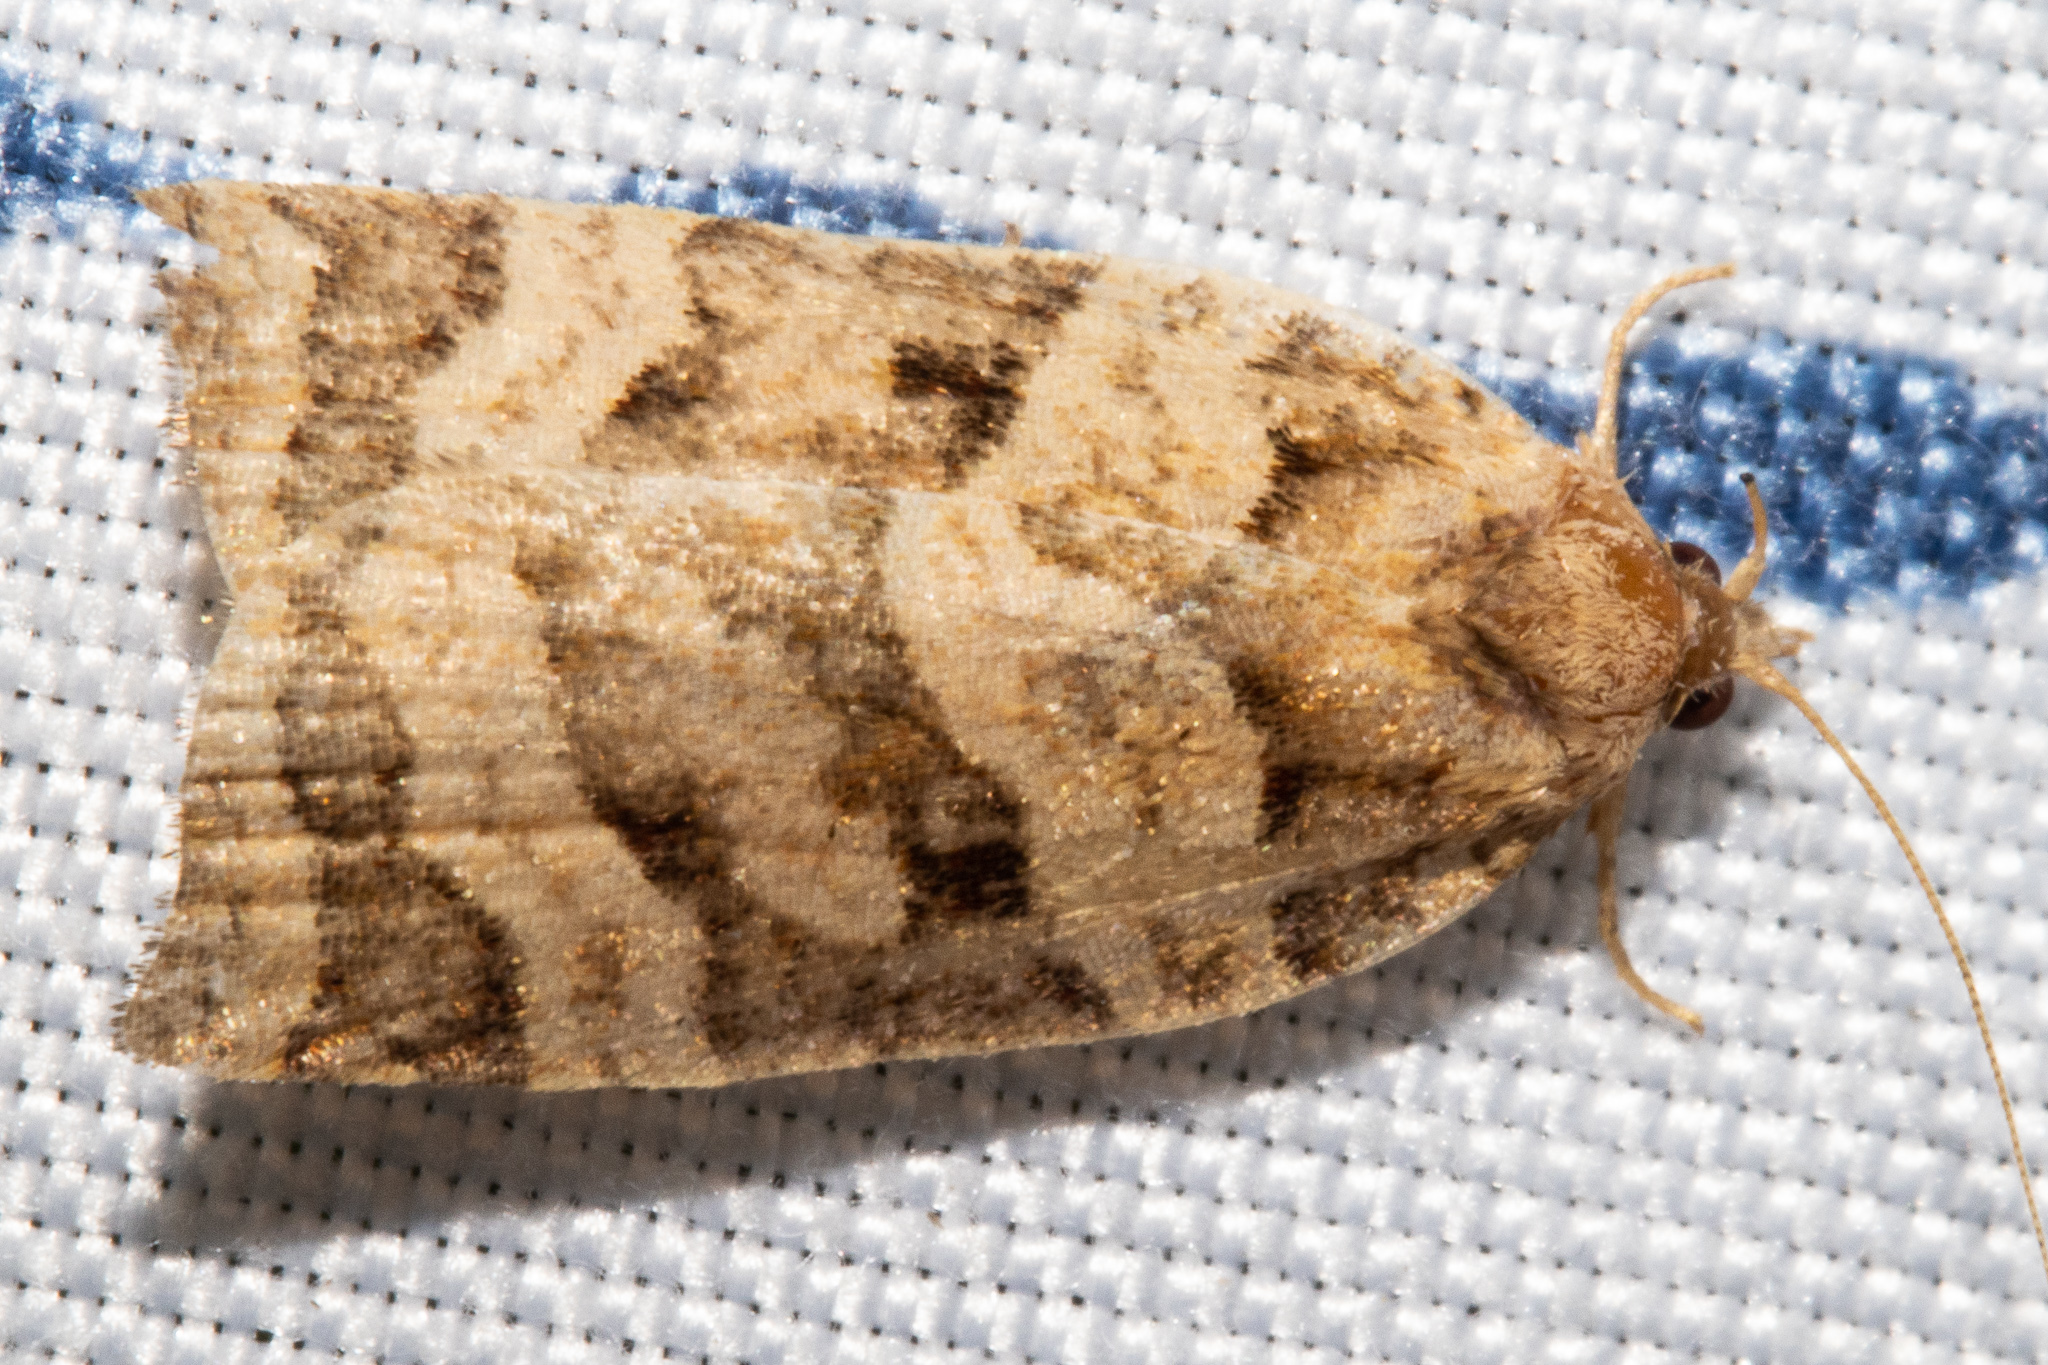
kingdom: Animalia
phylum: Arthropoda
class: Insecta
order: Lepidoptera
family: Tortricidae
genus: Apoctena
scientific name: Apoctena tigris
